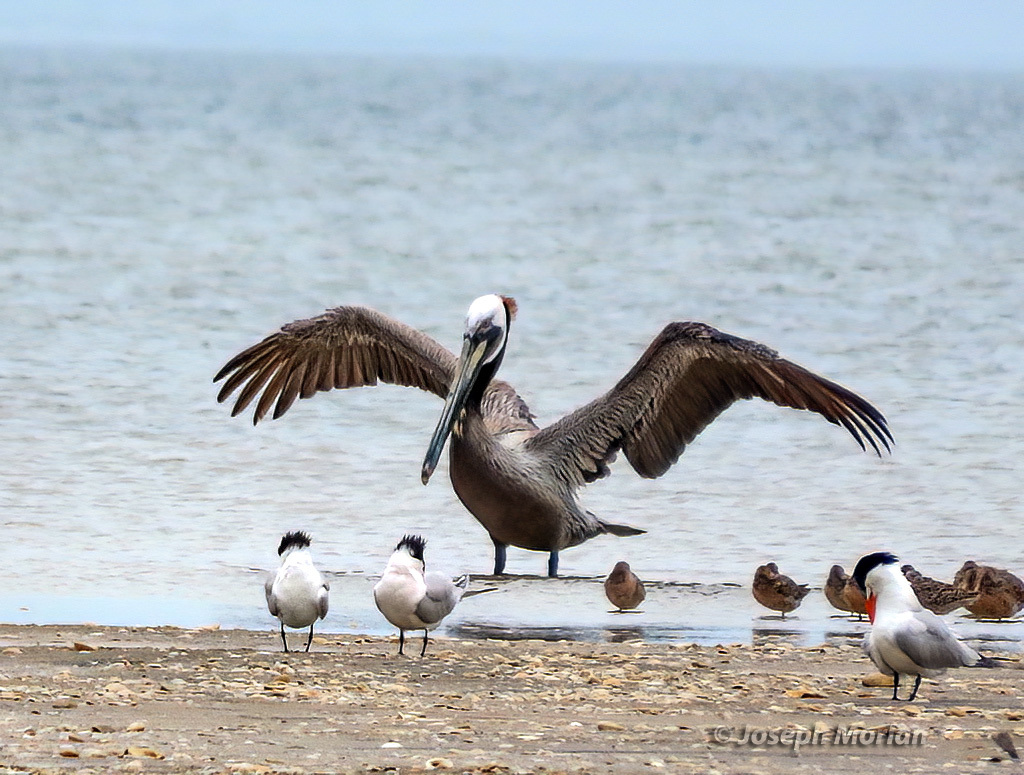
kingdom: Animalia
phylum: Chordata
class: Aves
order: Pelecaniformes
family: Pelecanidae
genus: Pelecanus
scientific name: Pelecanus occidentalis
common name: Brown pelican
